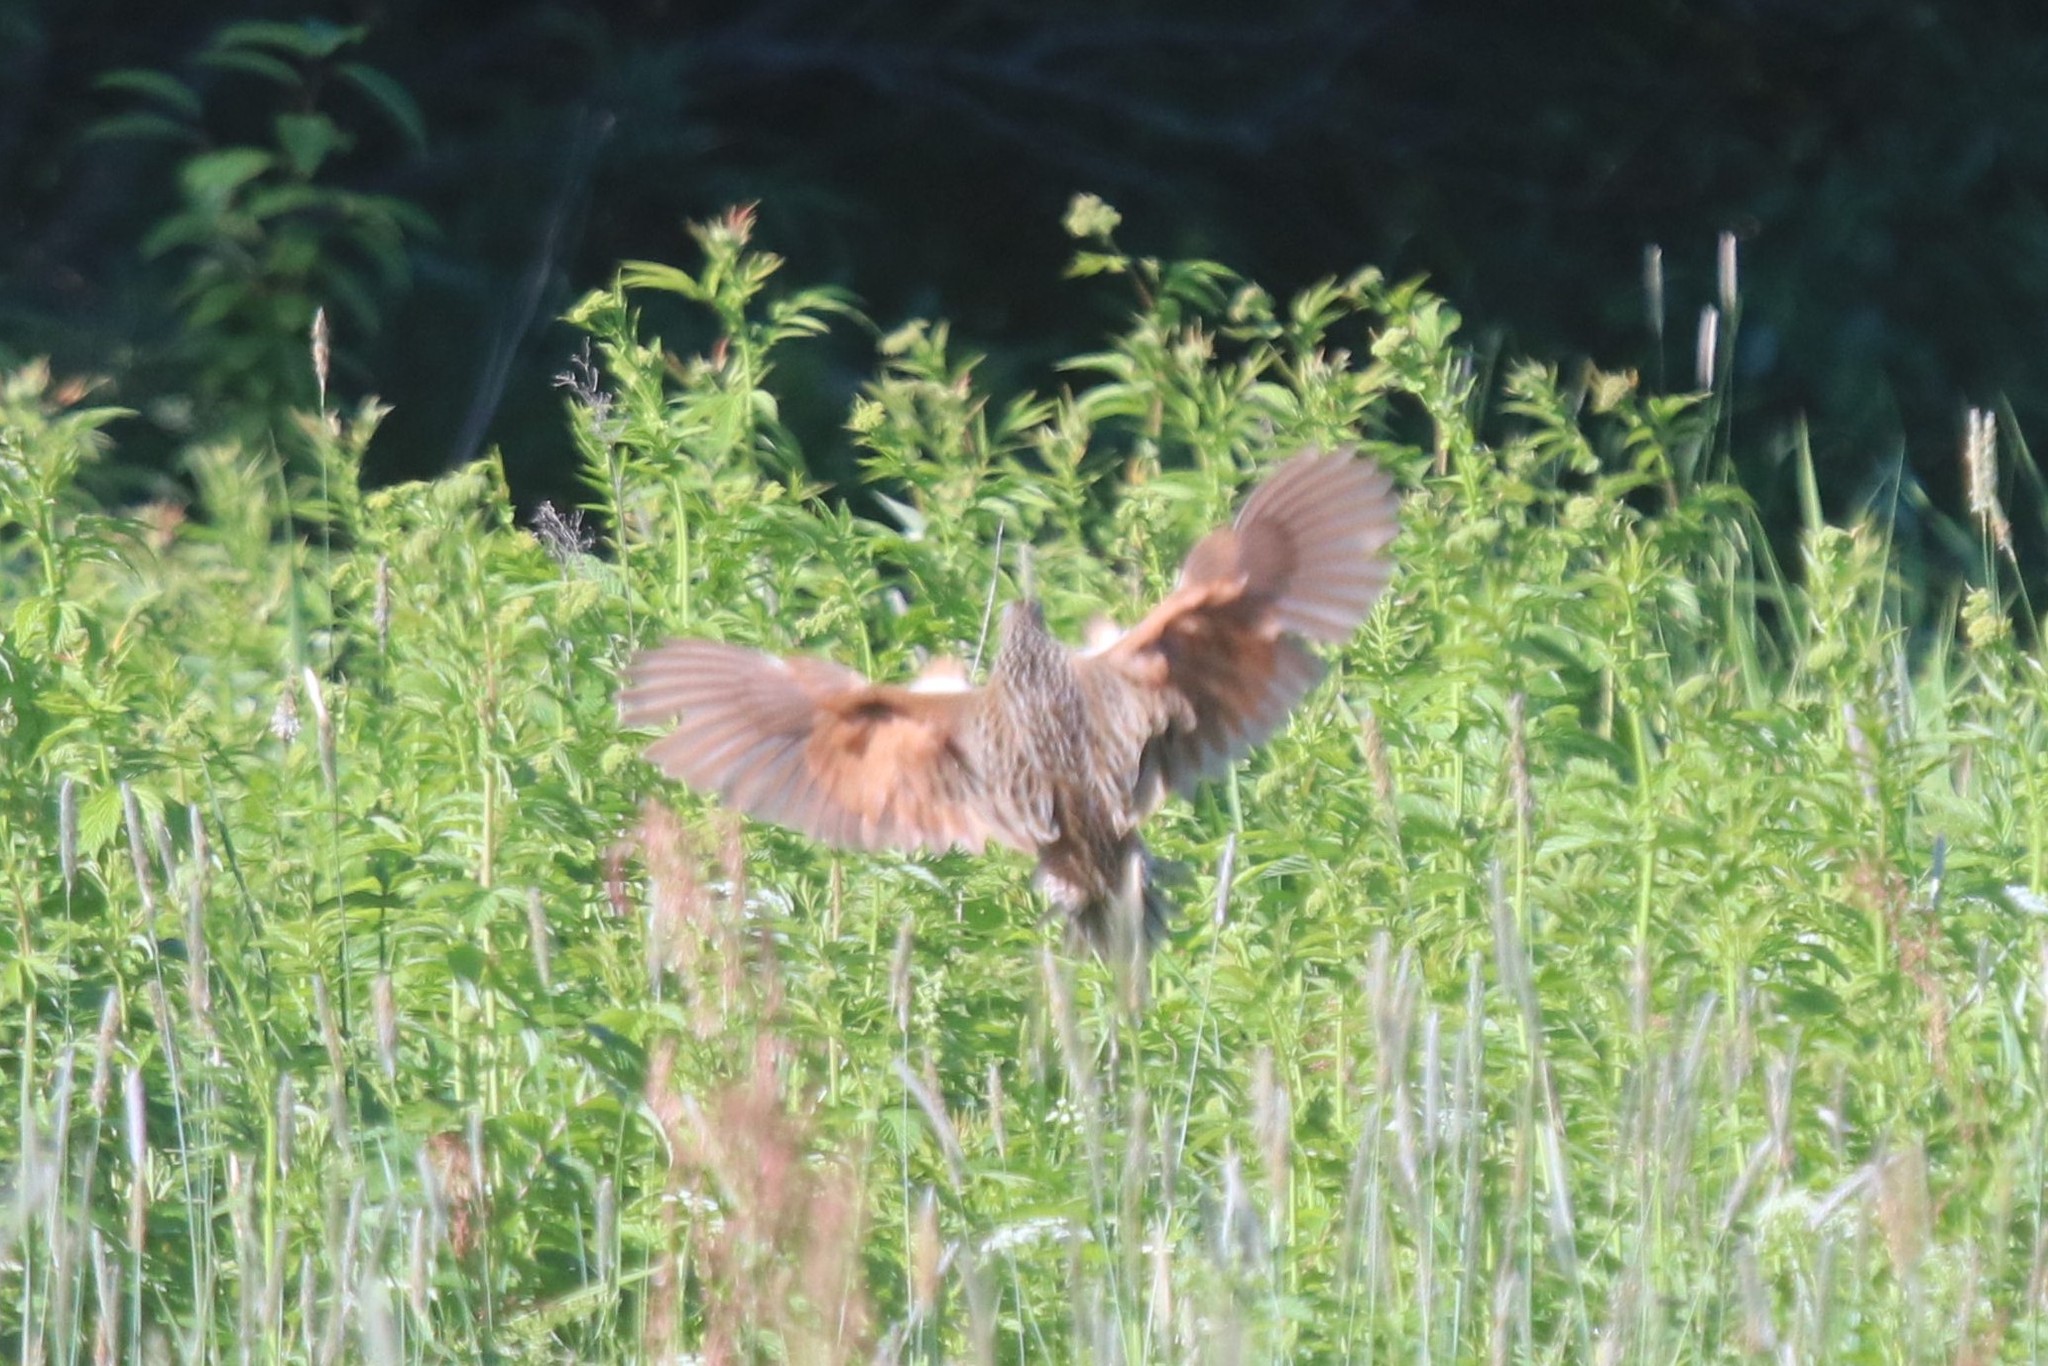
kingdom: Animalia
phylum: Chordata
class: Aves
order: Gruiformes
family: Rallidae
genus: Crex
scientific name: Crex crex
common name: Corn crake
